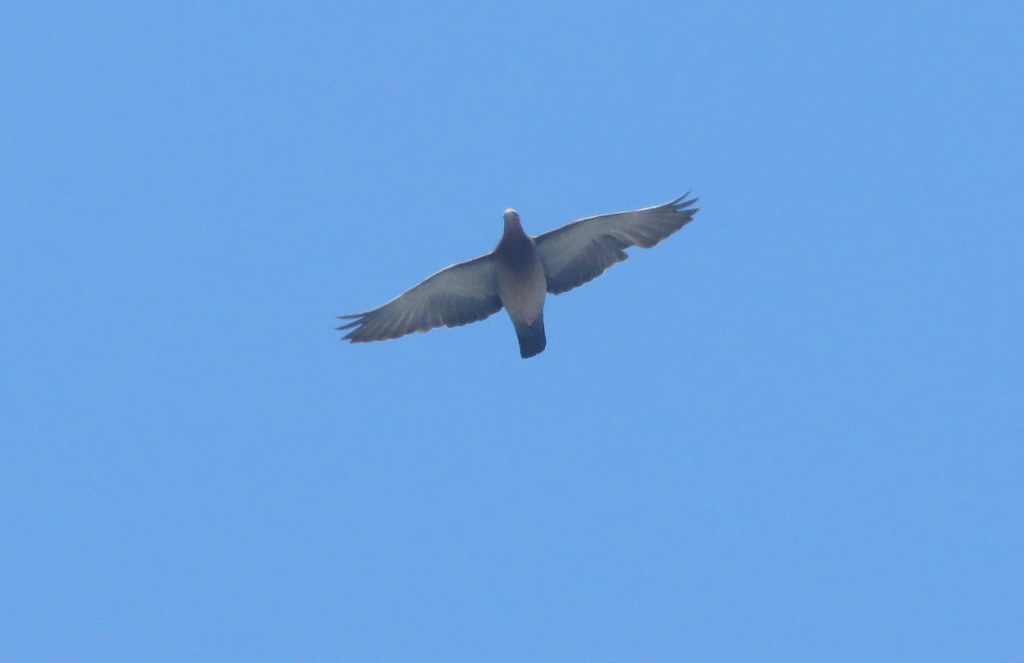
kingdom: Animalia
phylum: Chordata
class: Aves
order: Columbiformes
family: Columbidae
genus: Columba
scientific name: Columba livia
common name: Rock pigeon
